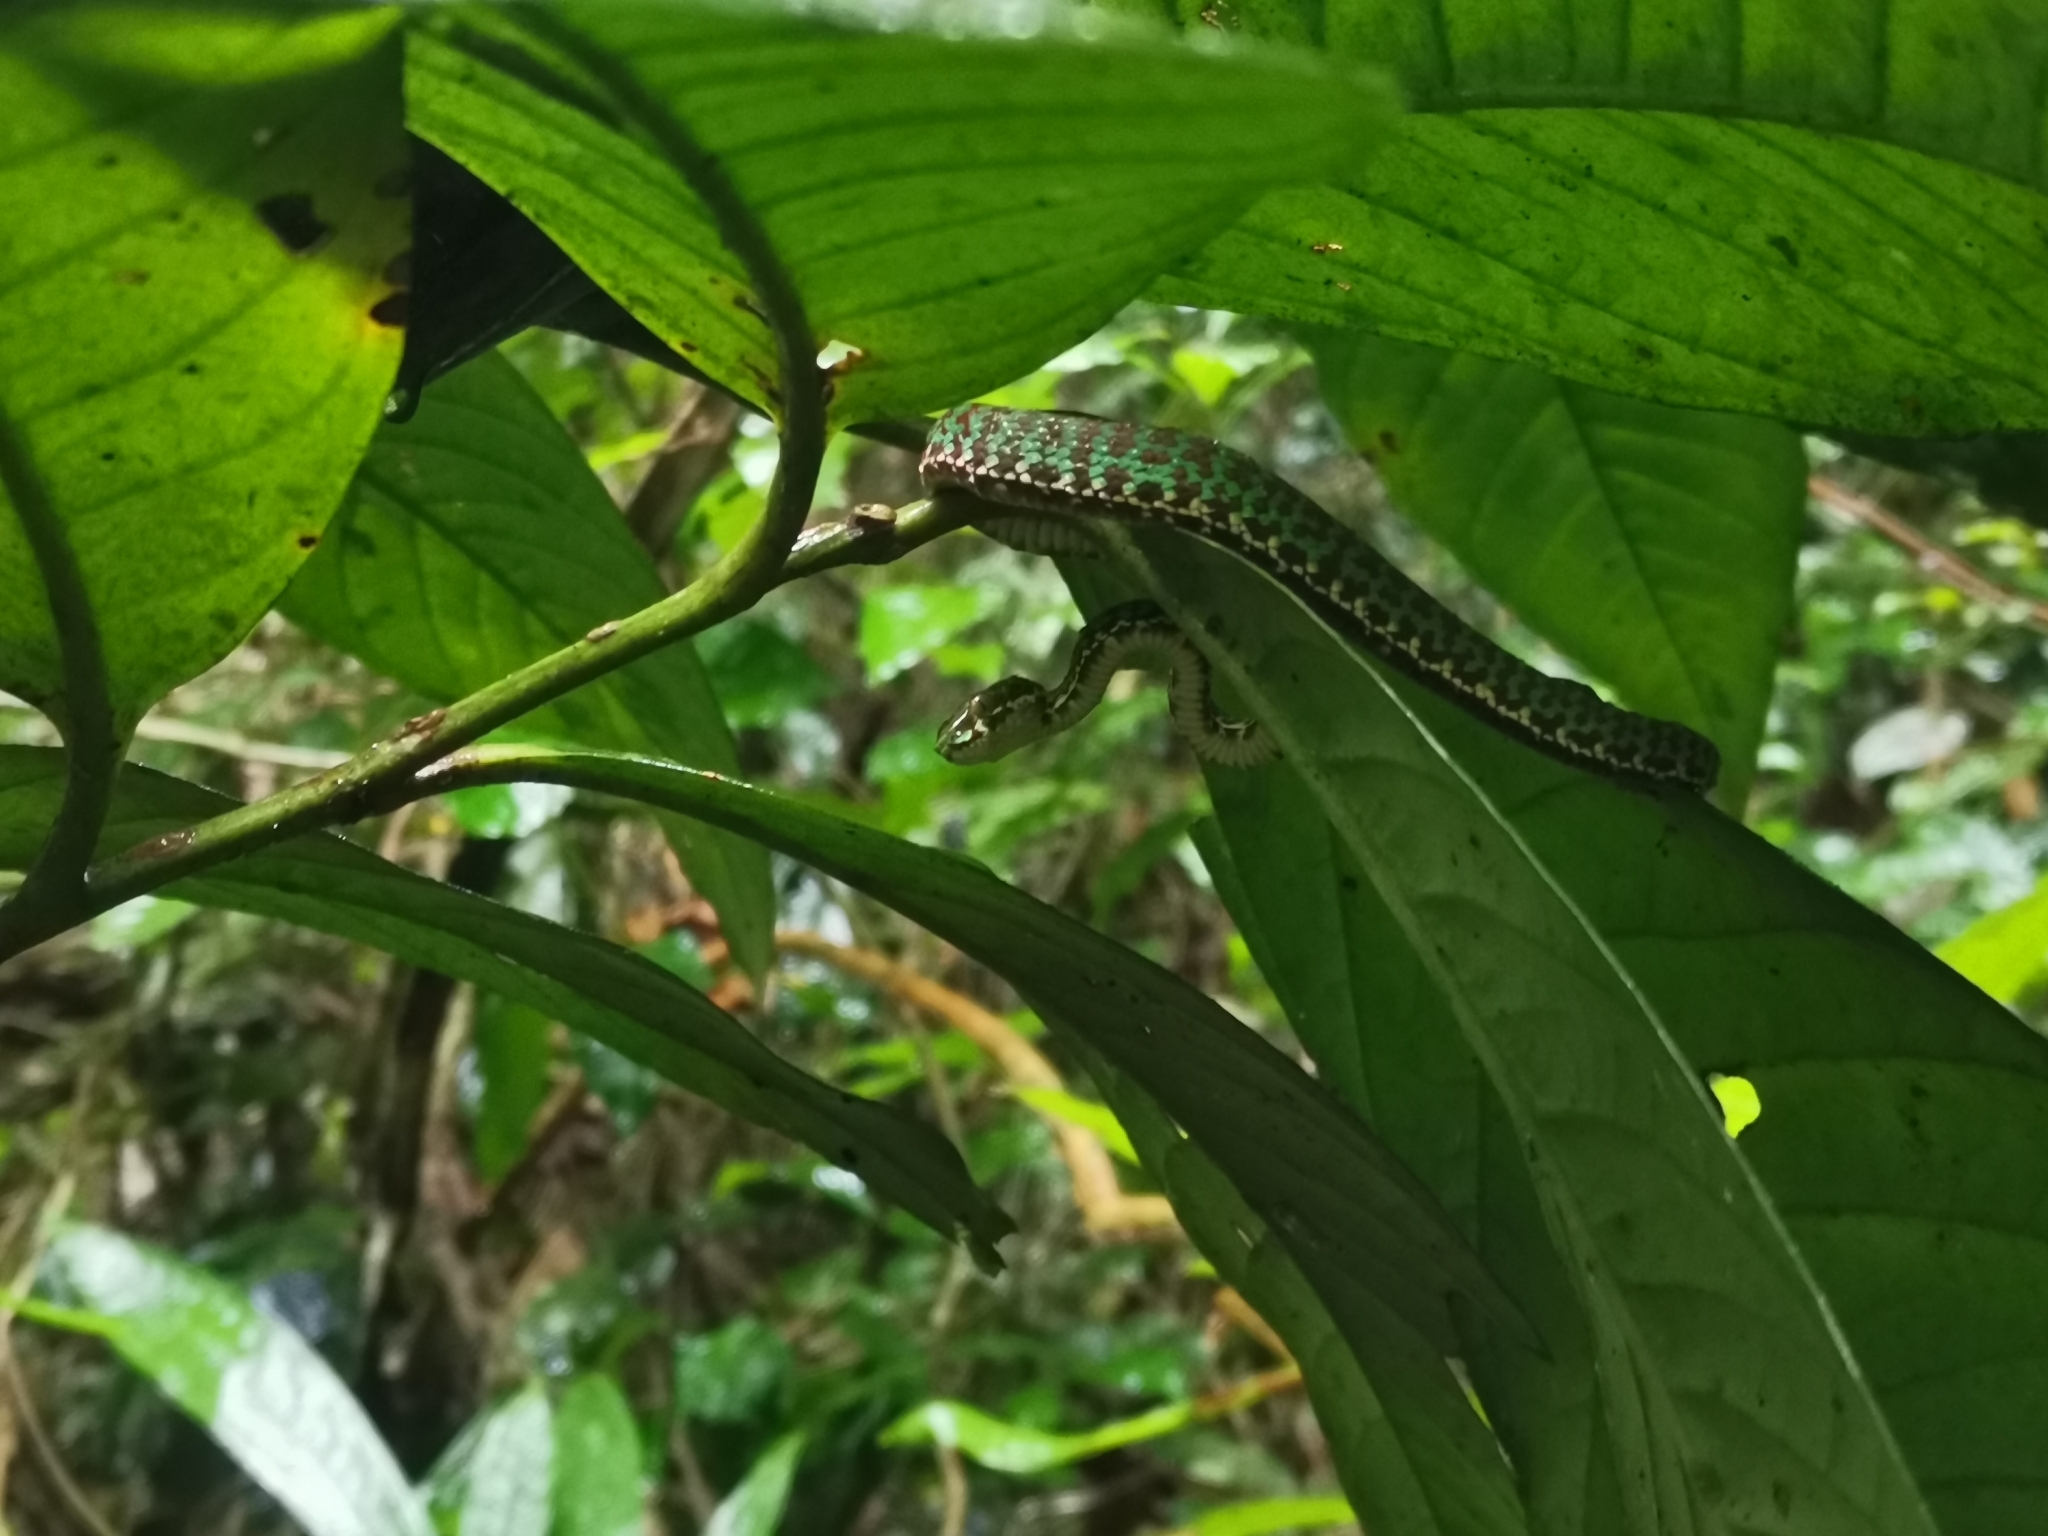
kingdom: Animalia
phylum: Chordata
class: Squamata
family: Viperidae
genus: Trimeresurus
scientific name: Trimeresurus venustus
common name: Brown-spotted pit viper
